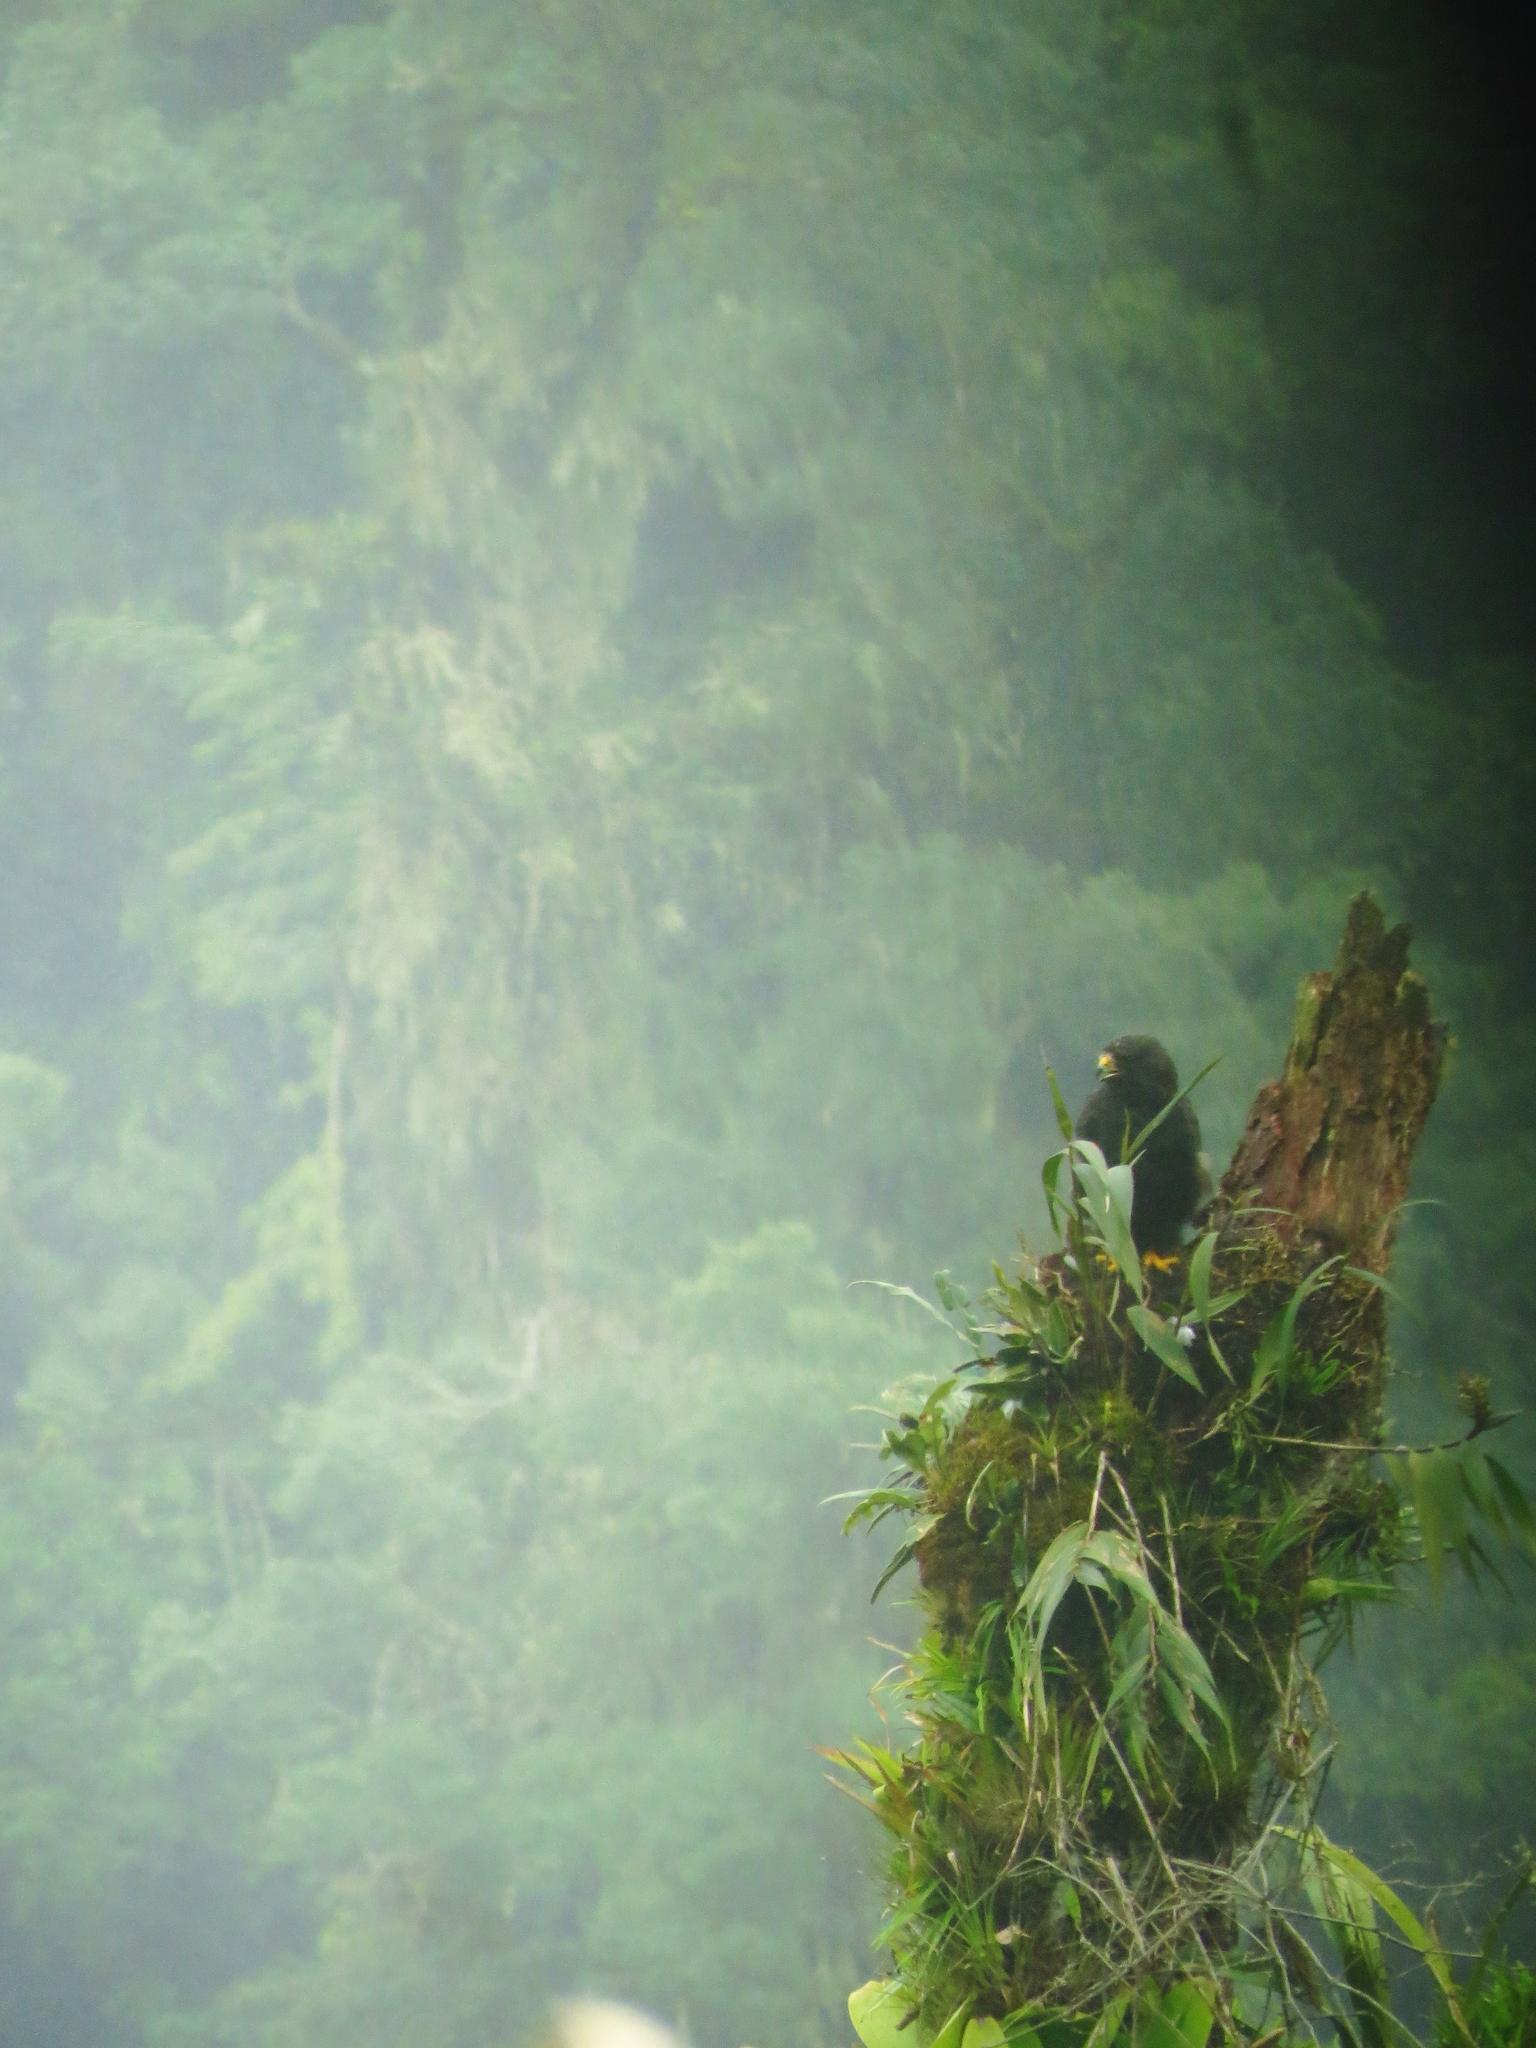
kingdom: Animalia
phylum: Chordata
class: Aves
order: Accipitriformes
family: Accipitridae
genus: Buteo
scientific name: Buteo brachyurus
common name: Short-tailed hawk
